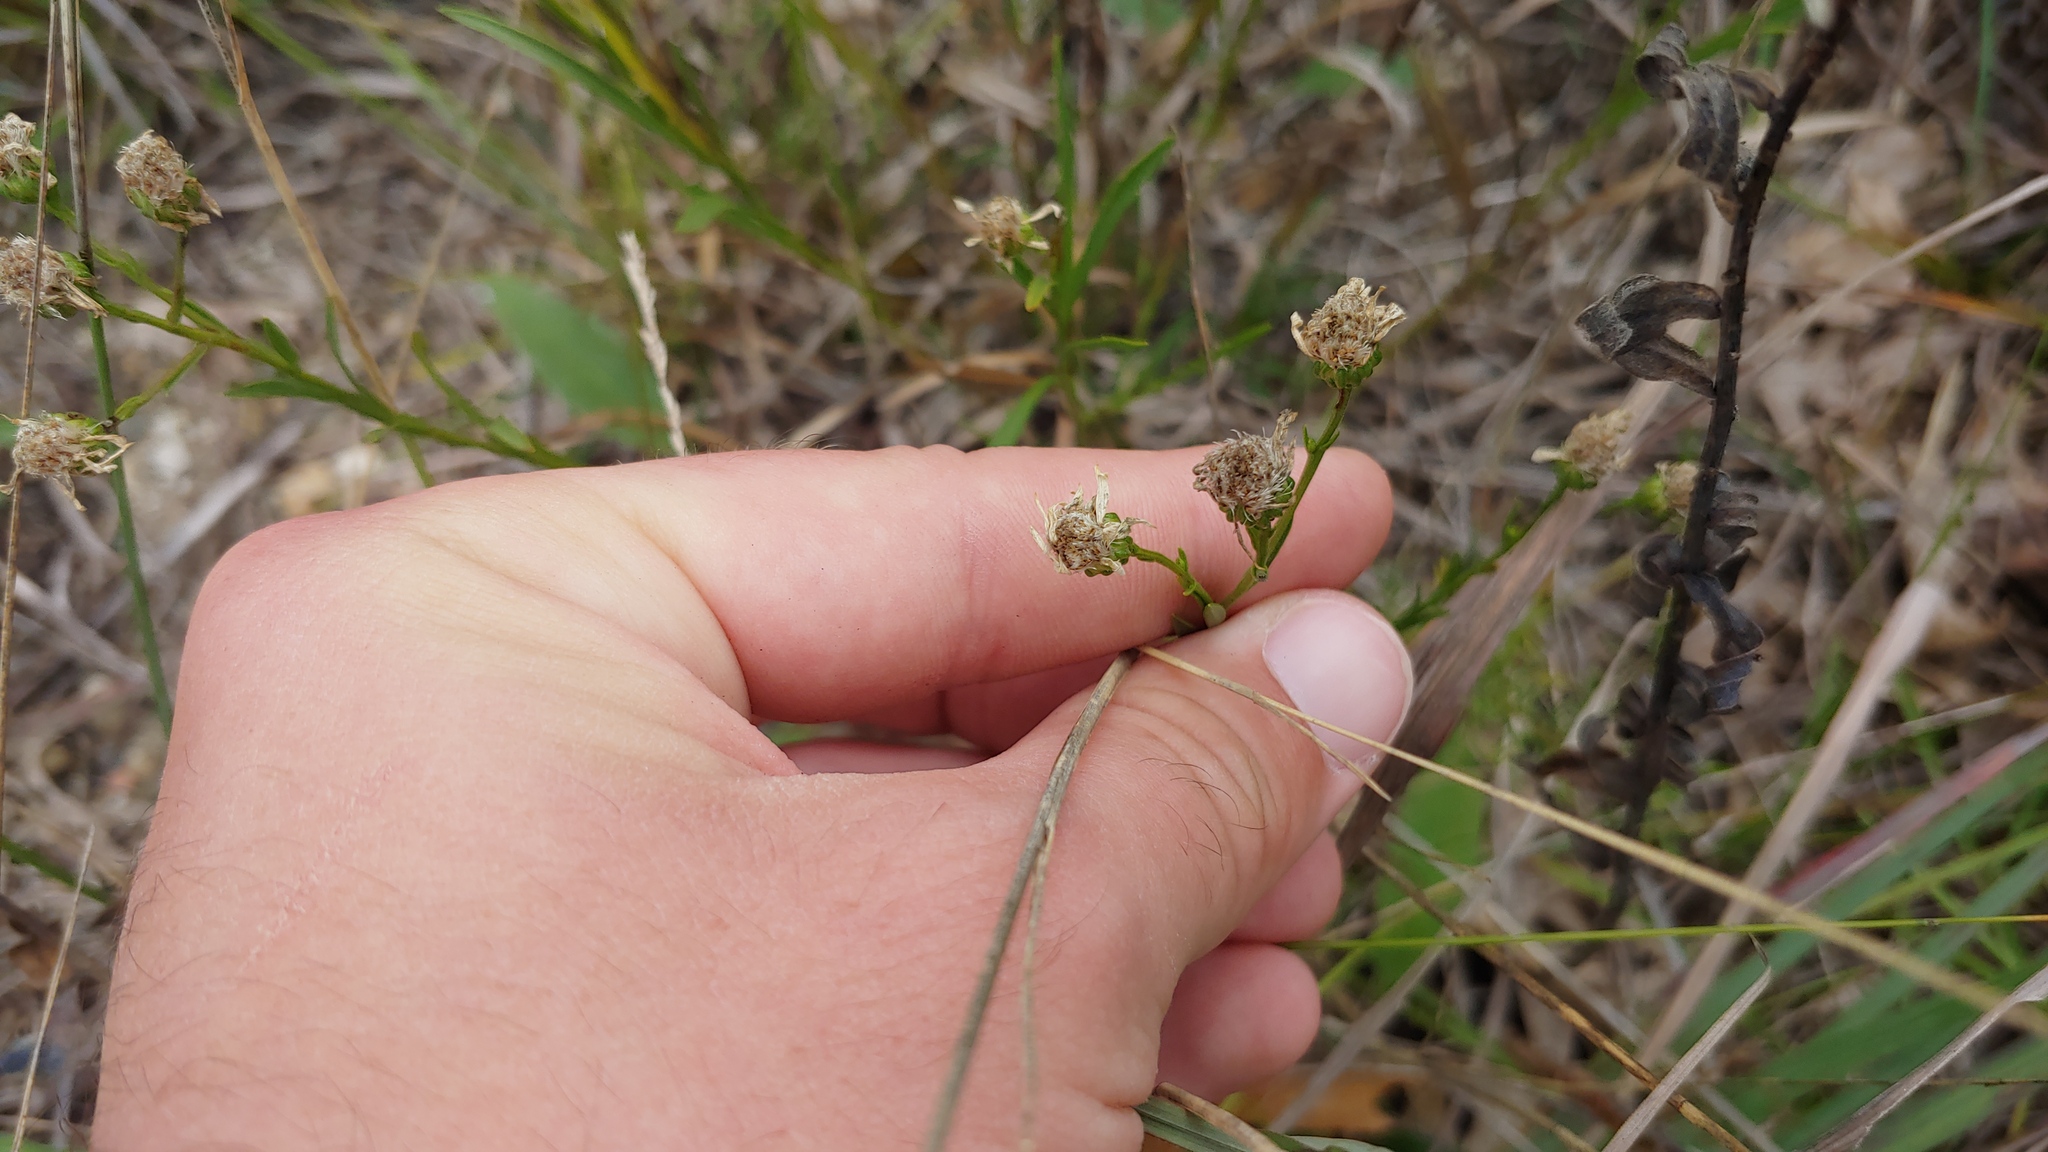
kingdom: Plantae
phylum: Tracheophyta
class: Magnoliopsida
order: Asterales
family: Asteraceae
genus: Solidago
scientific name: Solidago ptarmicoides
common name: White flat-top goldenrod
